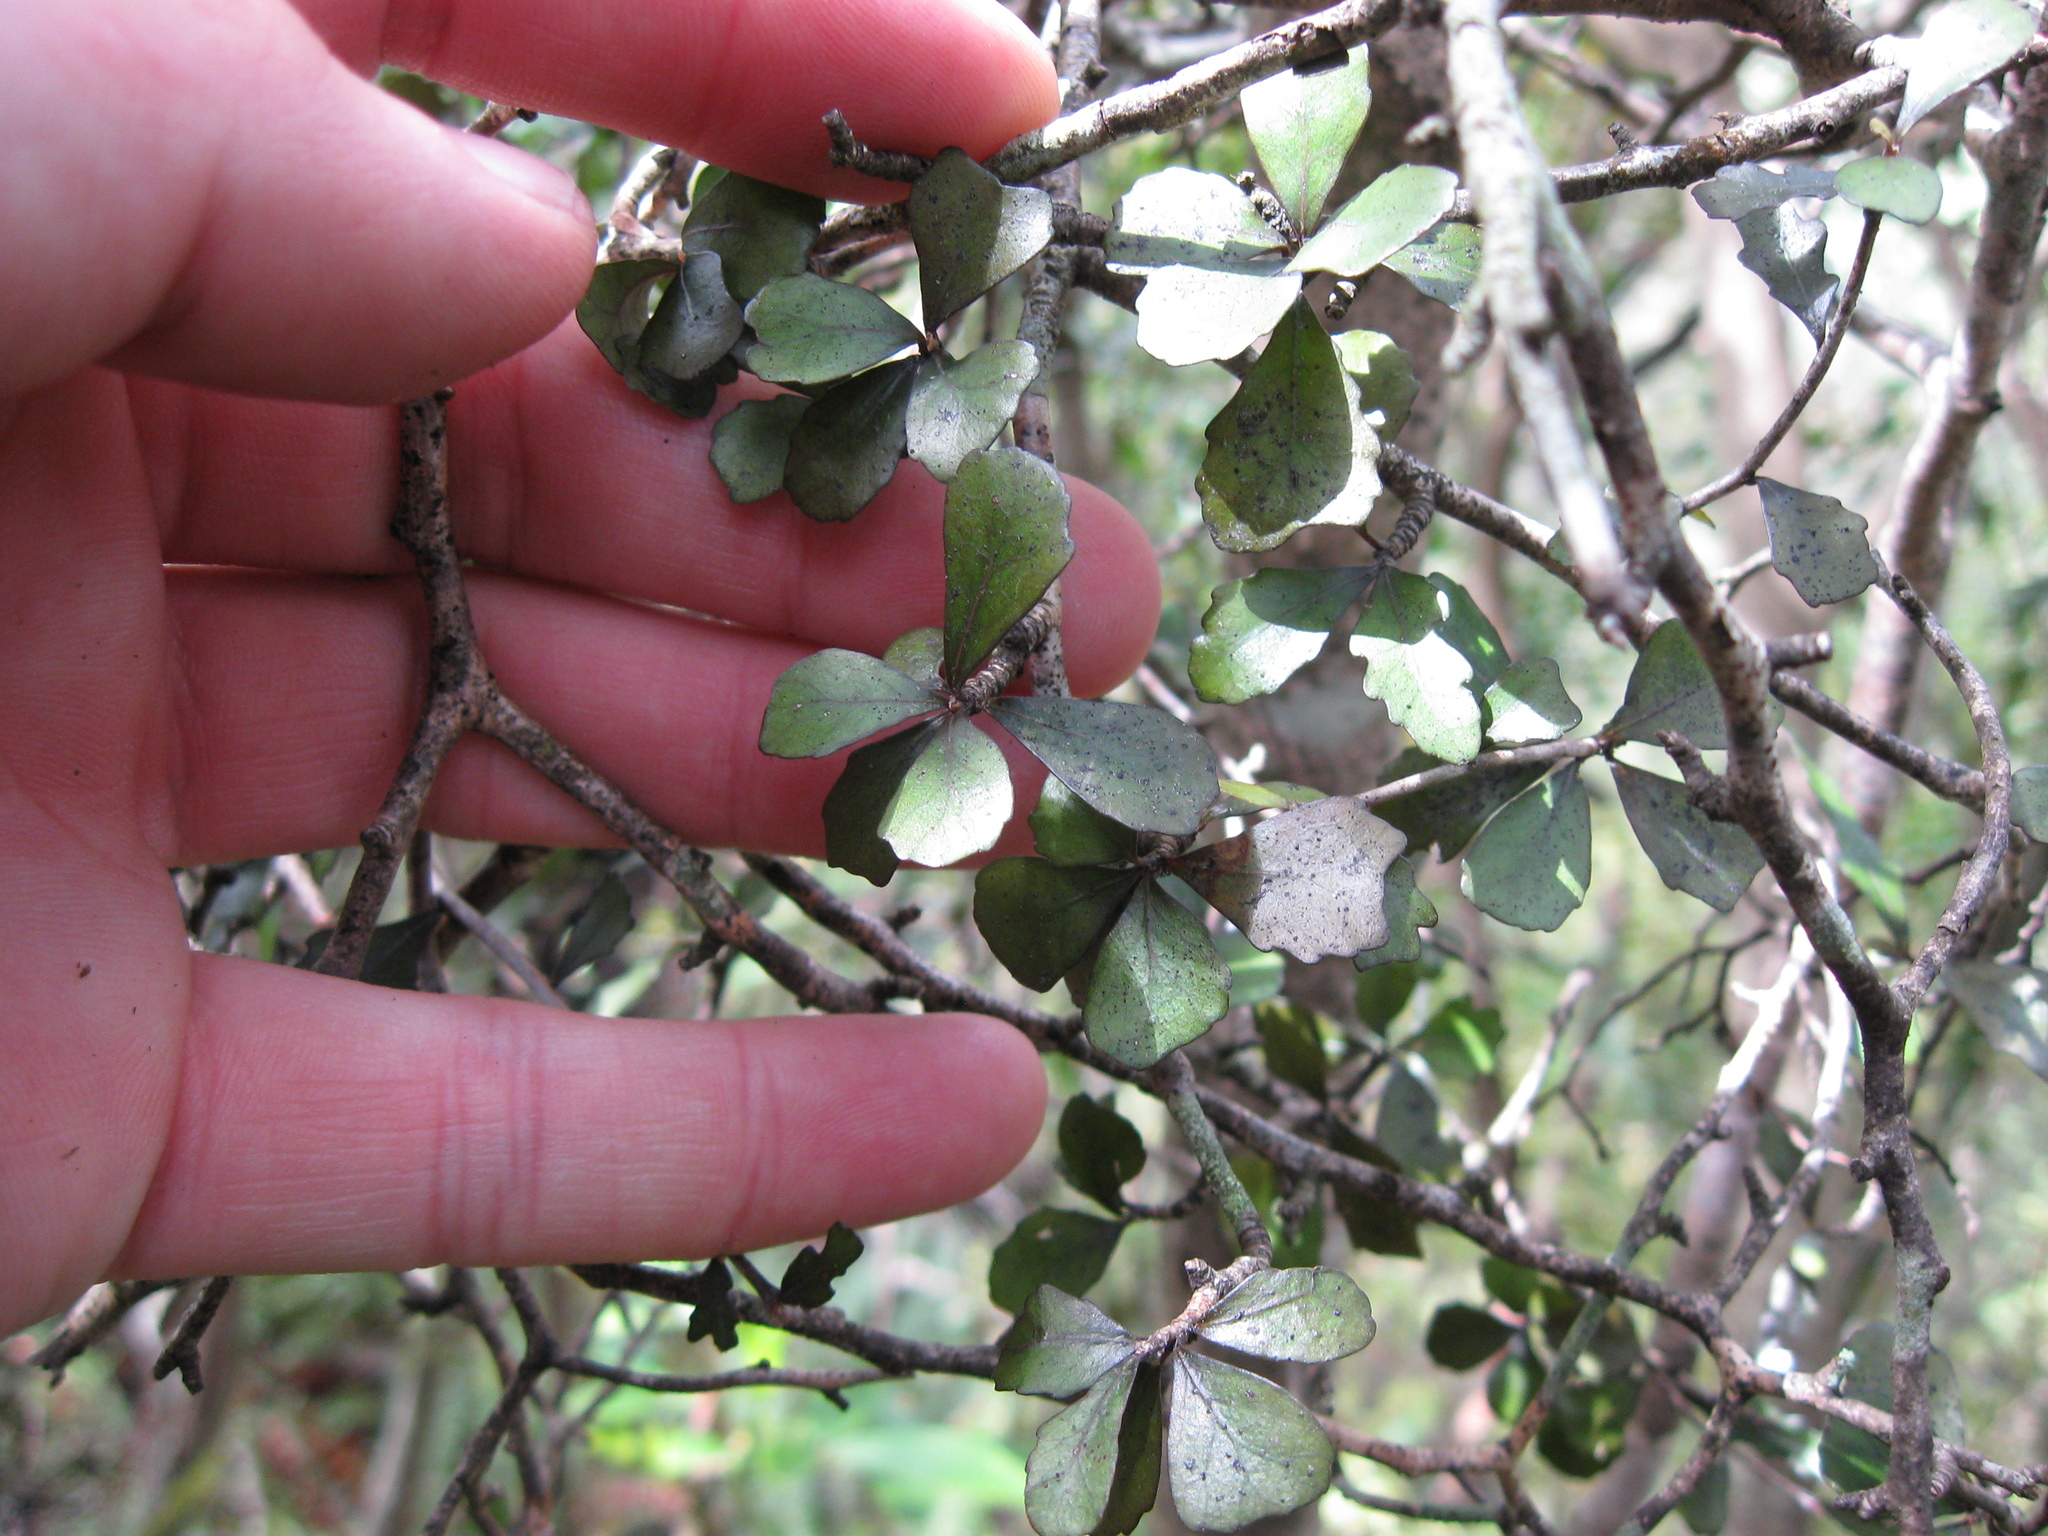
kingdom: Plantae
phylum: Tracheophyta
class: Magnoliopsida
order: Oxalidales
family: Elaeocarpaceae
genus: Elaeocarpus
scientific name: Elaeocarpus hookerianus
